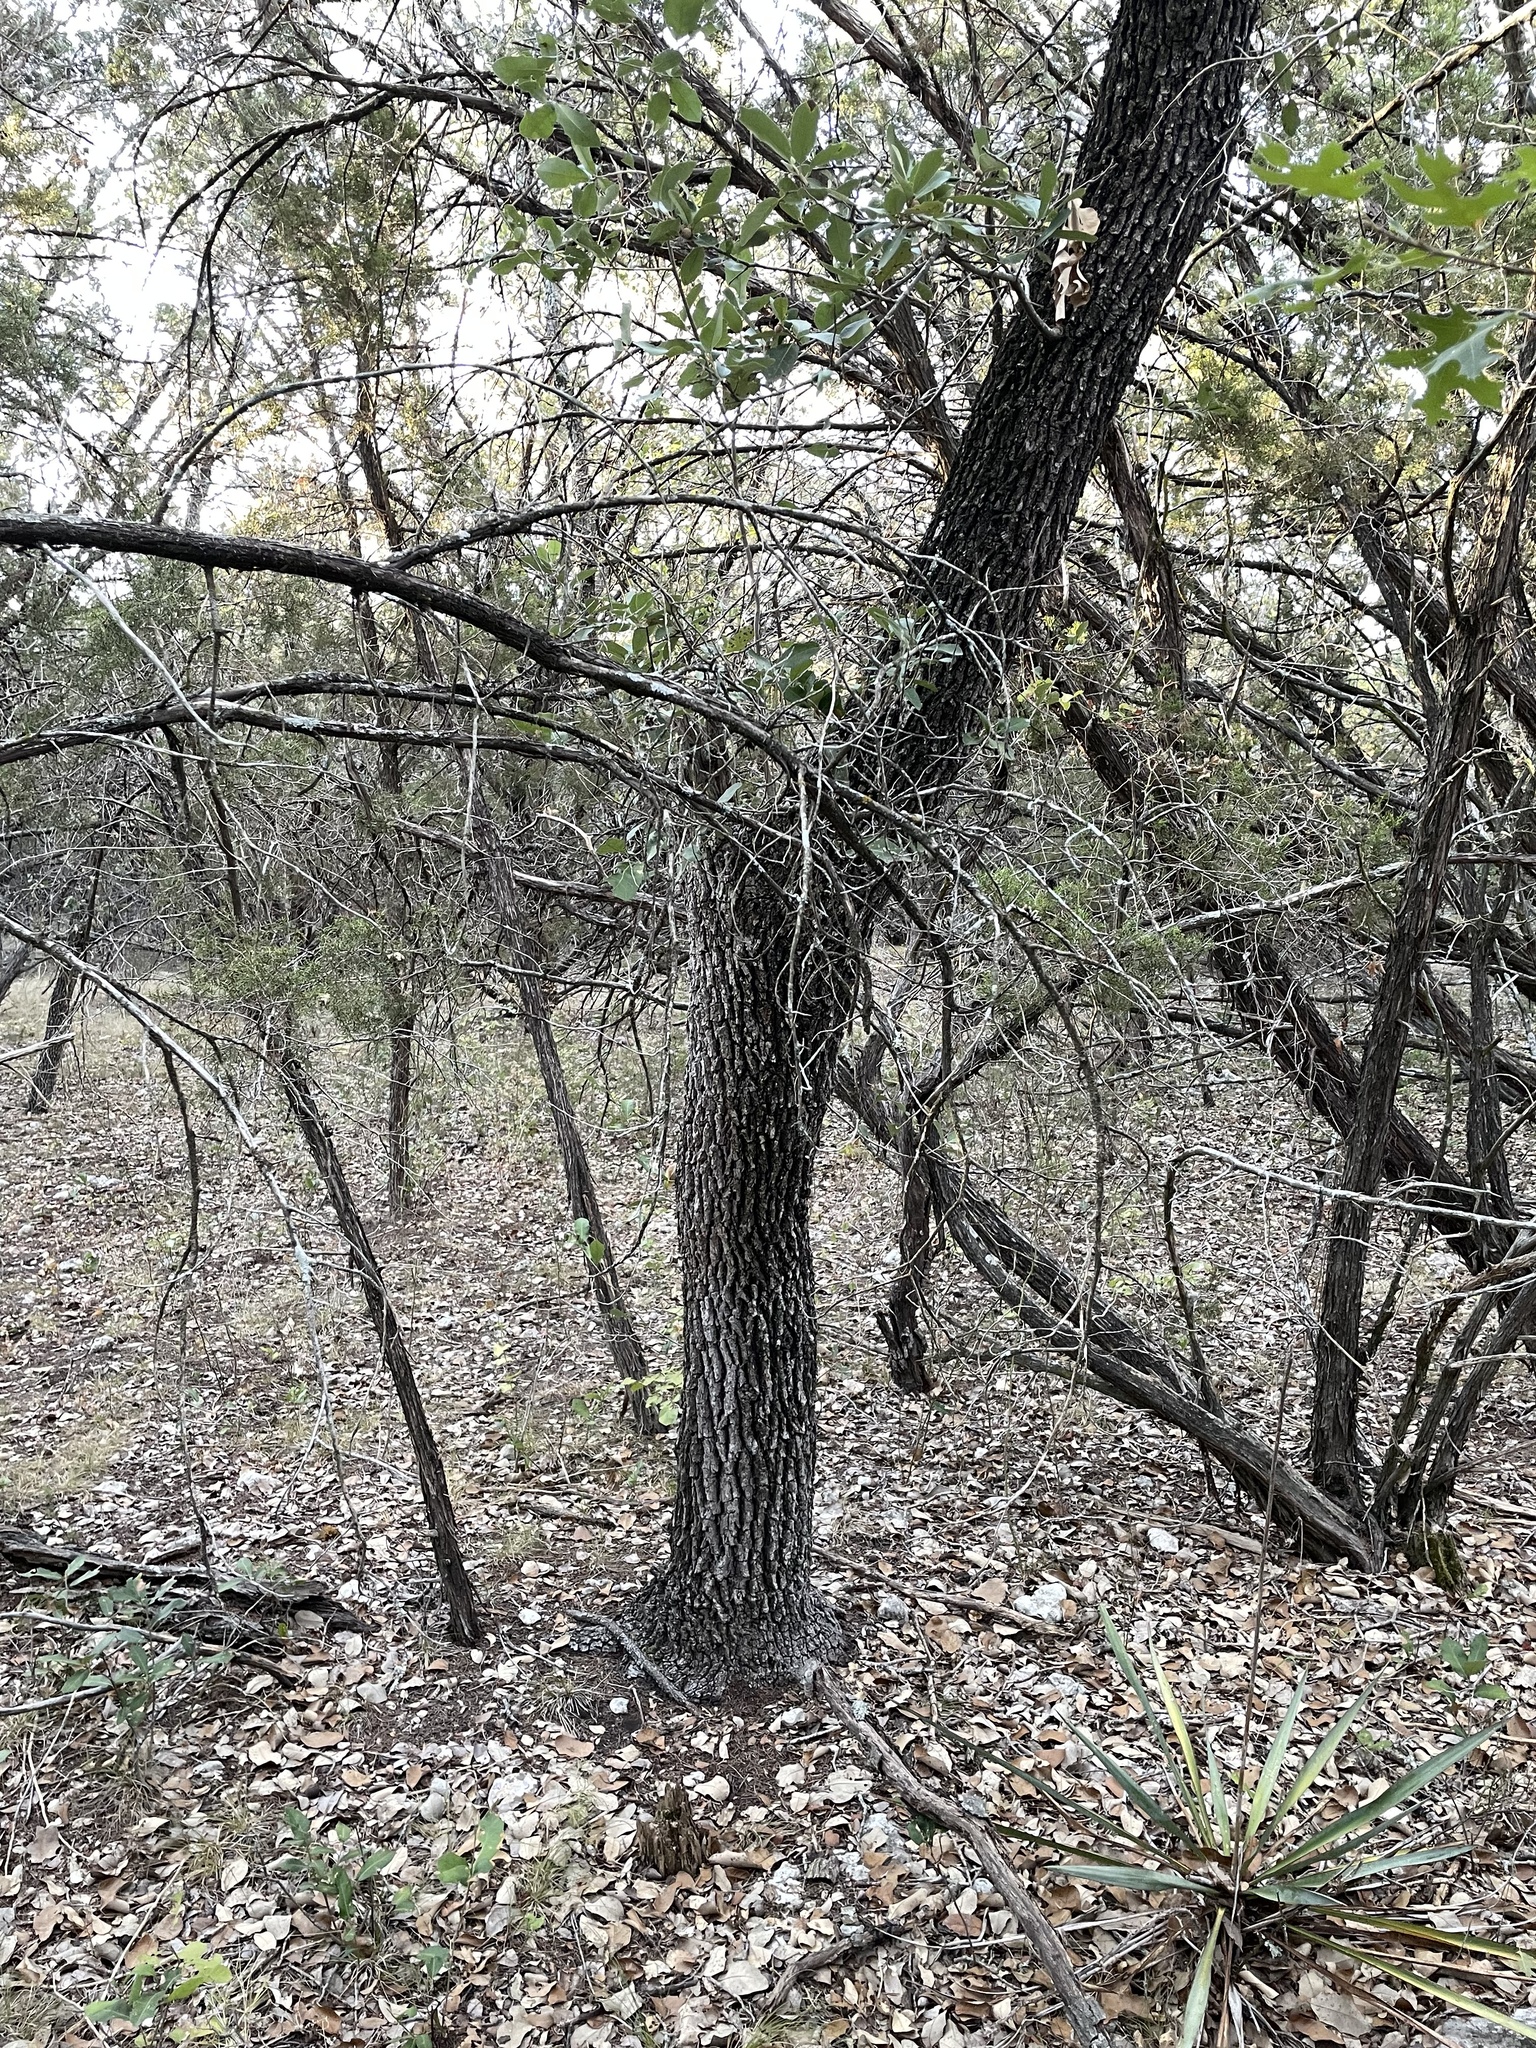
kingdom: Plantae
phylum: Tracheophyta
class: Magnoliopsida
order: Fagales
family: Fagaceae
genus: Quercus
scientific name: Quercus fusiformis
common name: Texas live oak
